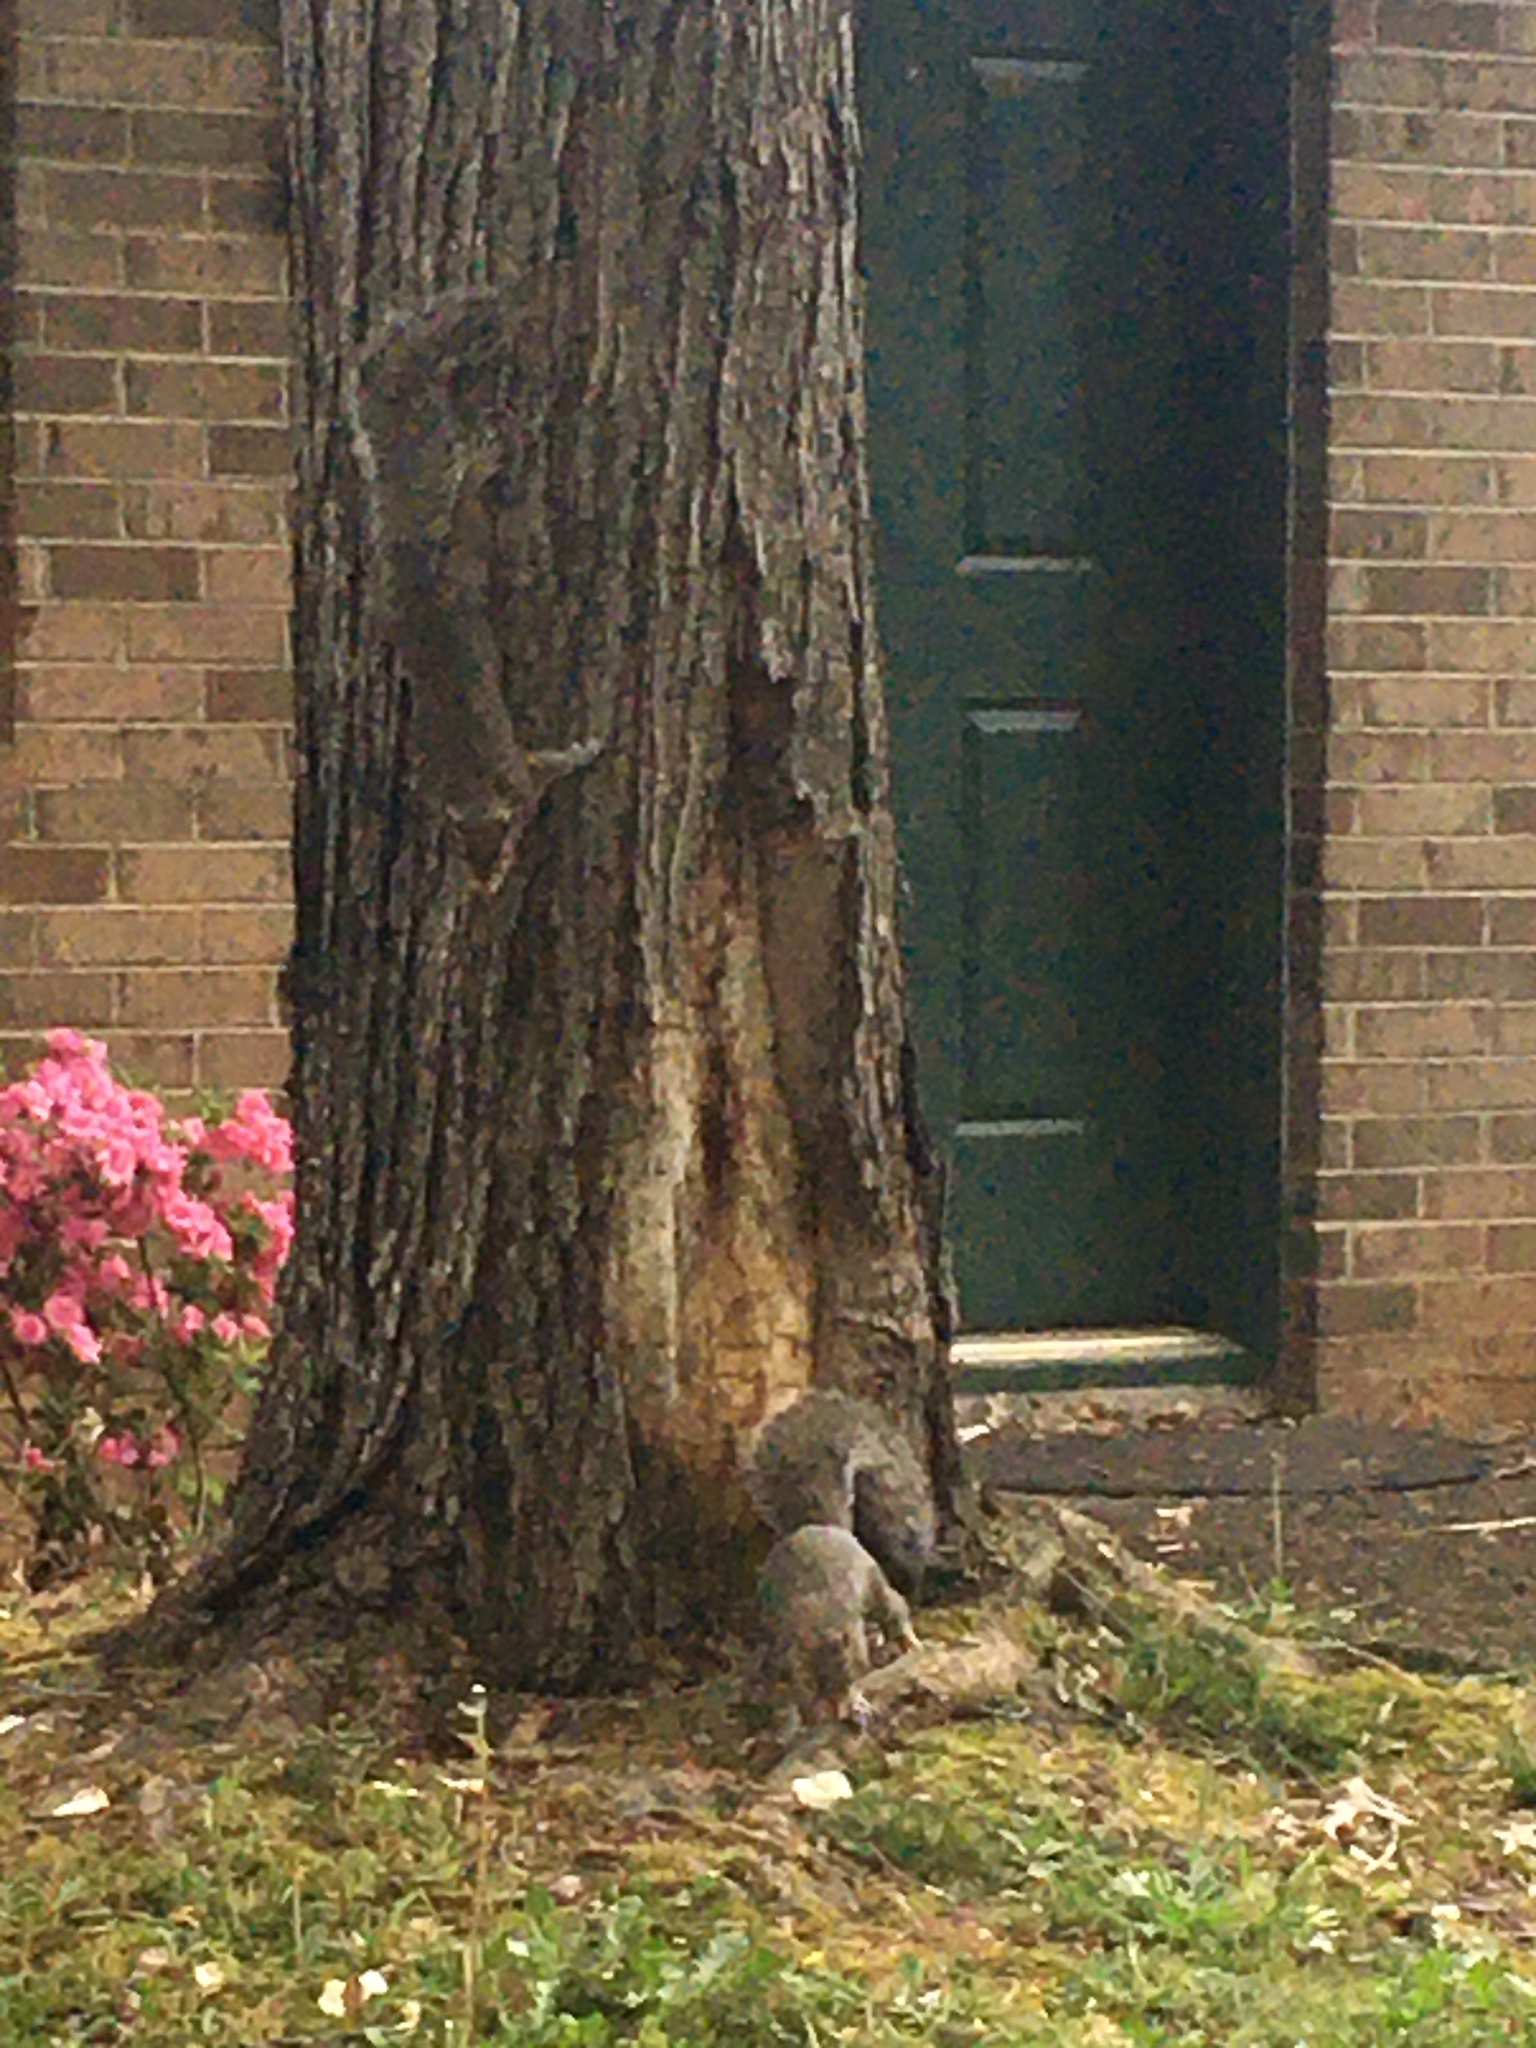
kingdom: Animalia
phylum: Chordata
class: Mammalia
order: Rodentia
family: Sciuridae
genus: Sciurus
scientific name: Sciurus carolinensis
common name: Eastern gray squirrel
